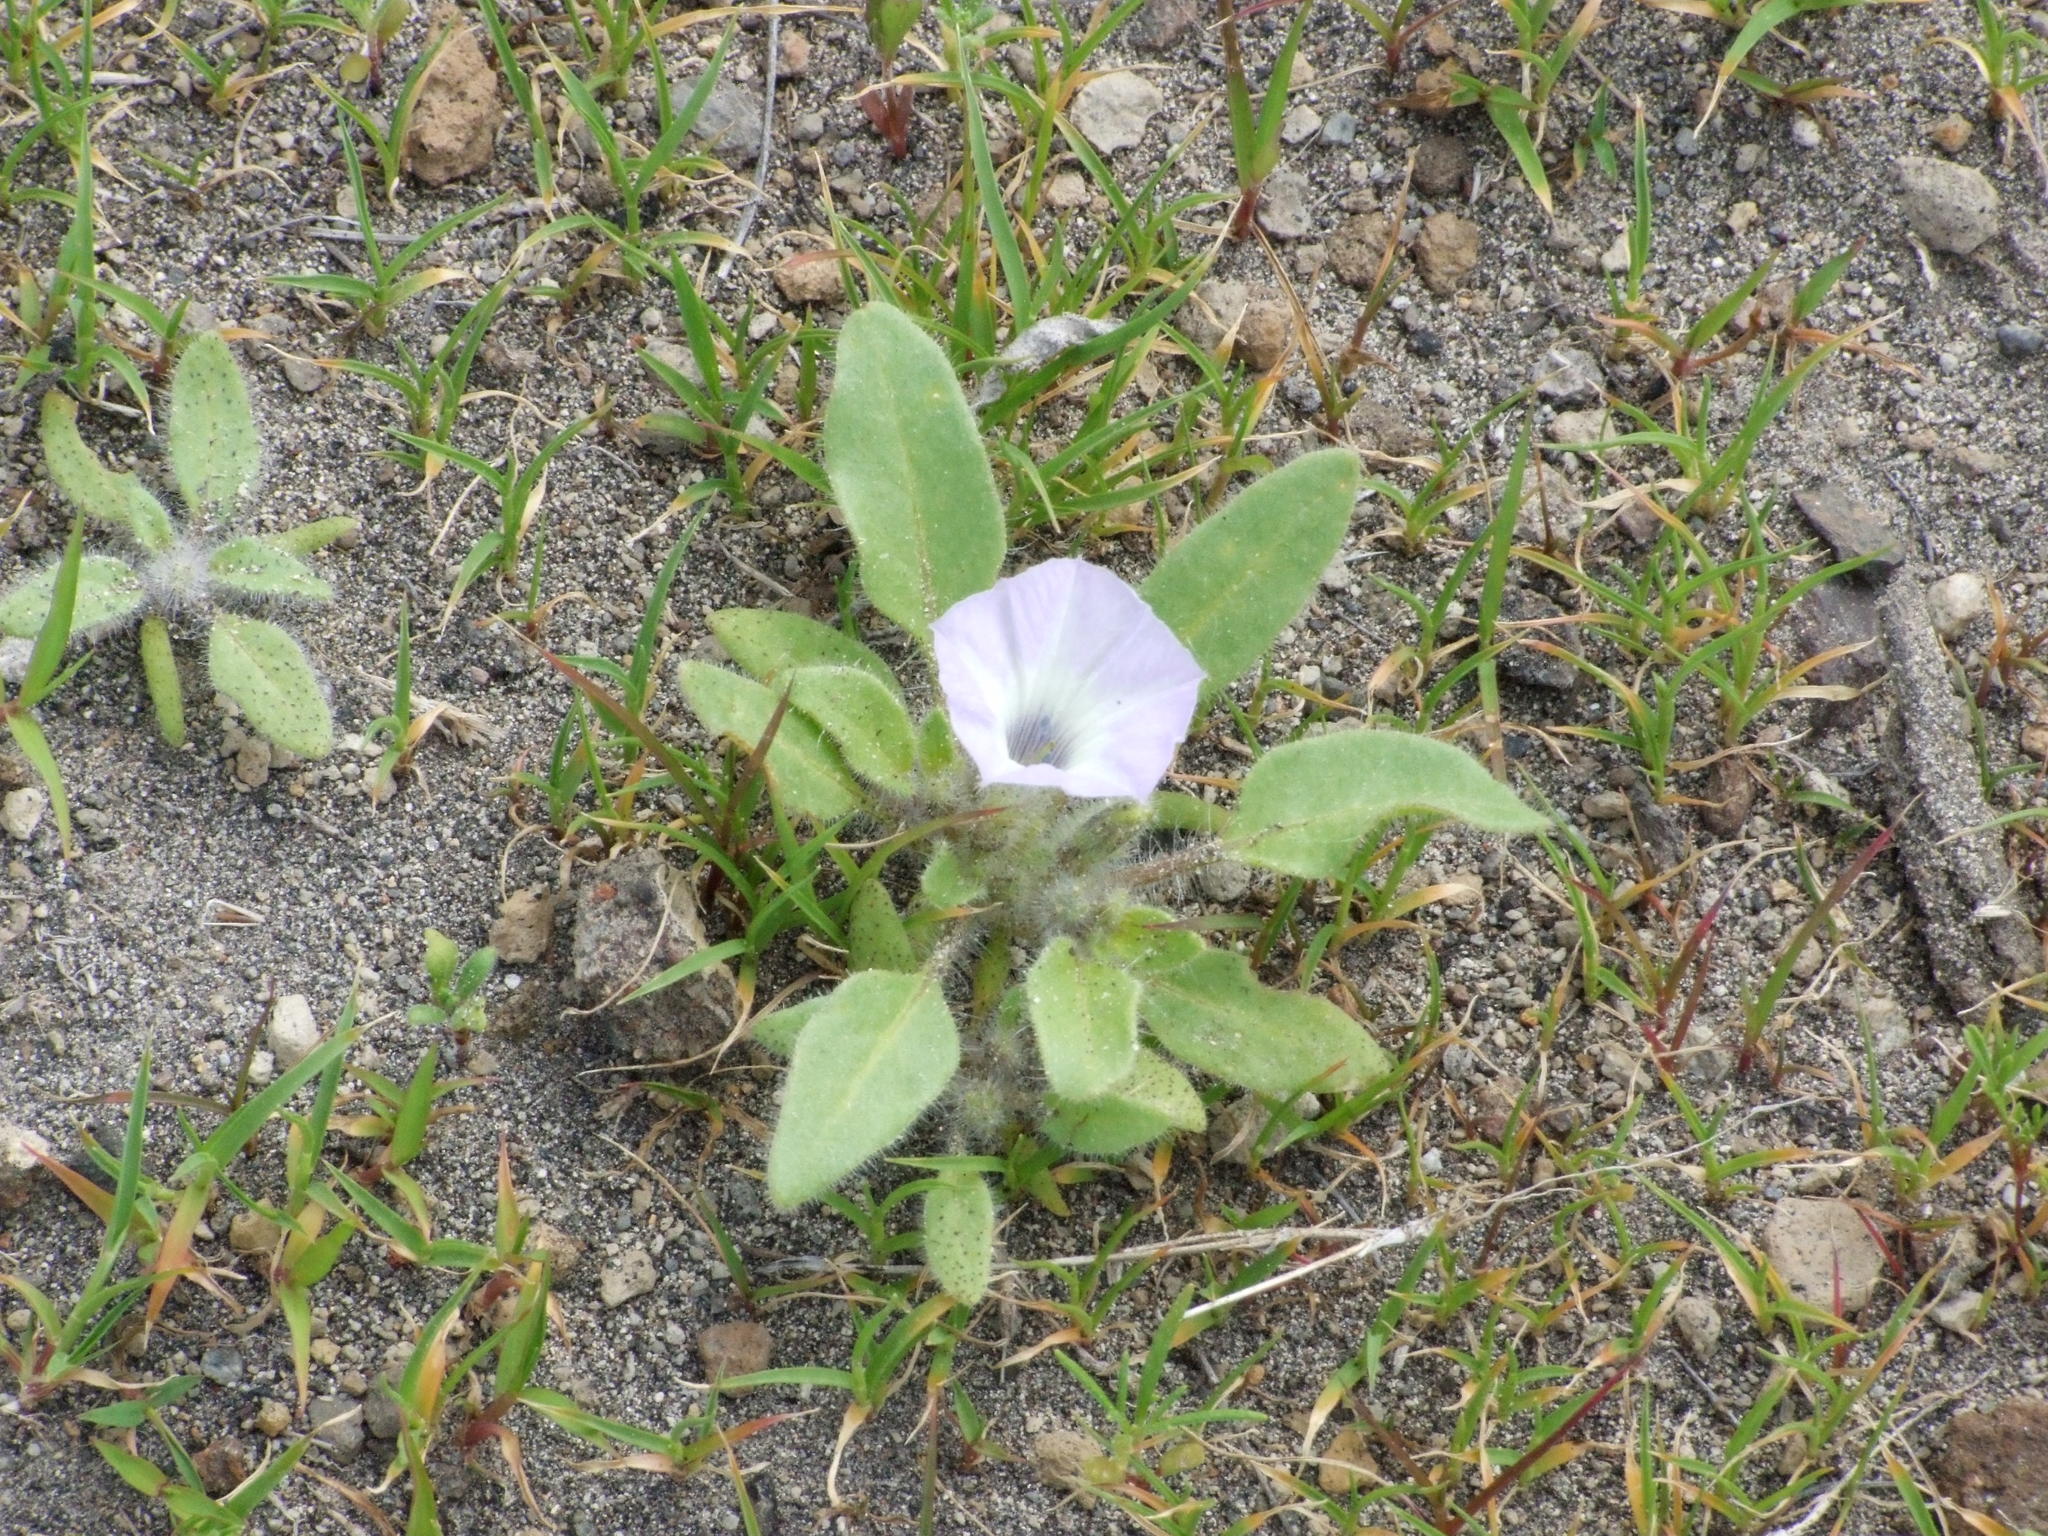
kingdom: Plantae
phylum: Tracheophyta
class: Magnoliopsida
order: Solanales
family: Solanaceae
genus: Exodeconus
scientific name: Exodeconus pusillus
